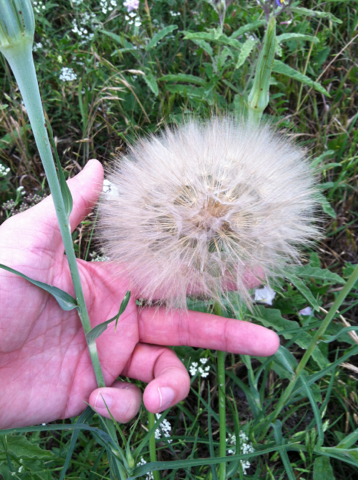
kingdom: Plantae
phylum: Tracheophyta
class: Magnoliopsida
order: Asterales
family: Asteraceae
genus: Tragopogon
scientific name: Tragopogon dubius
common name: Yellow salsify
